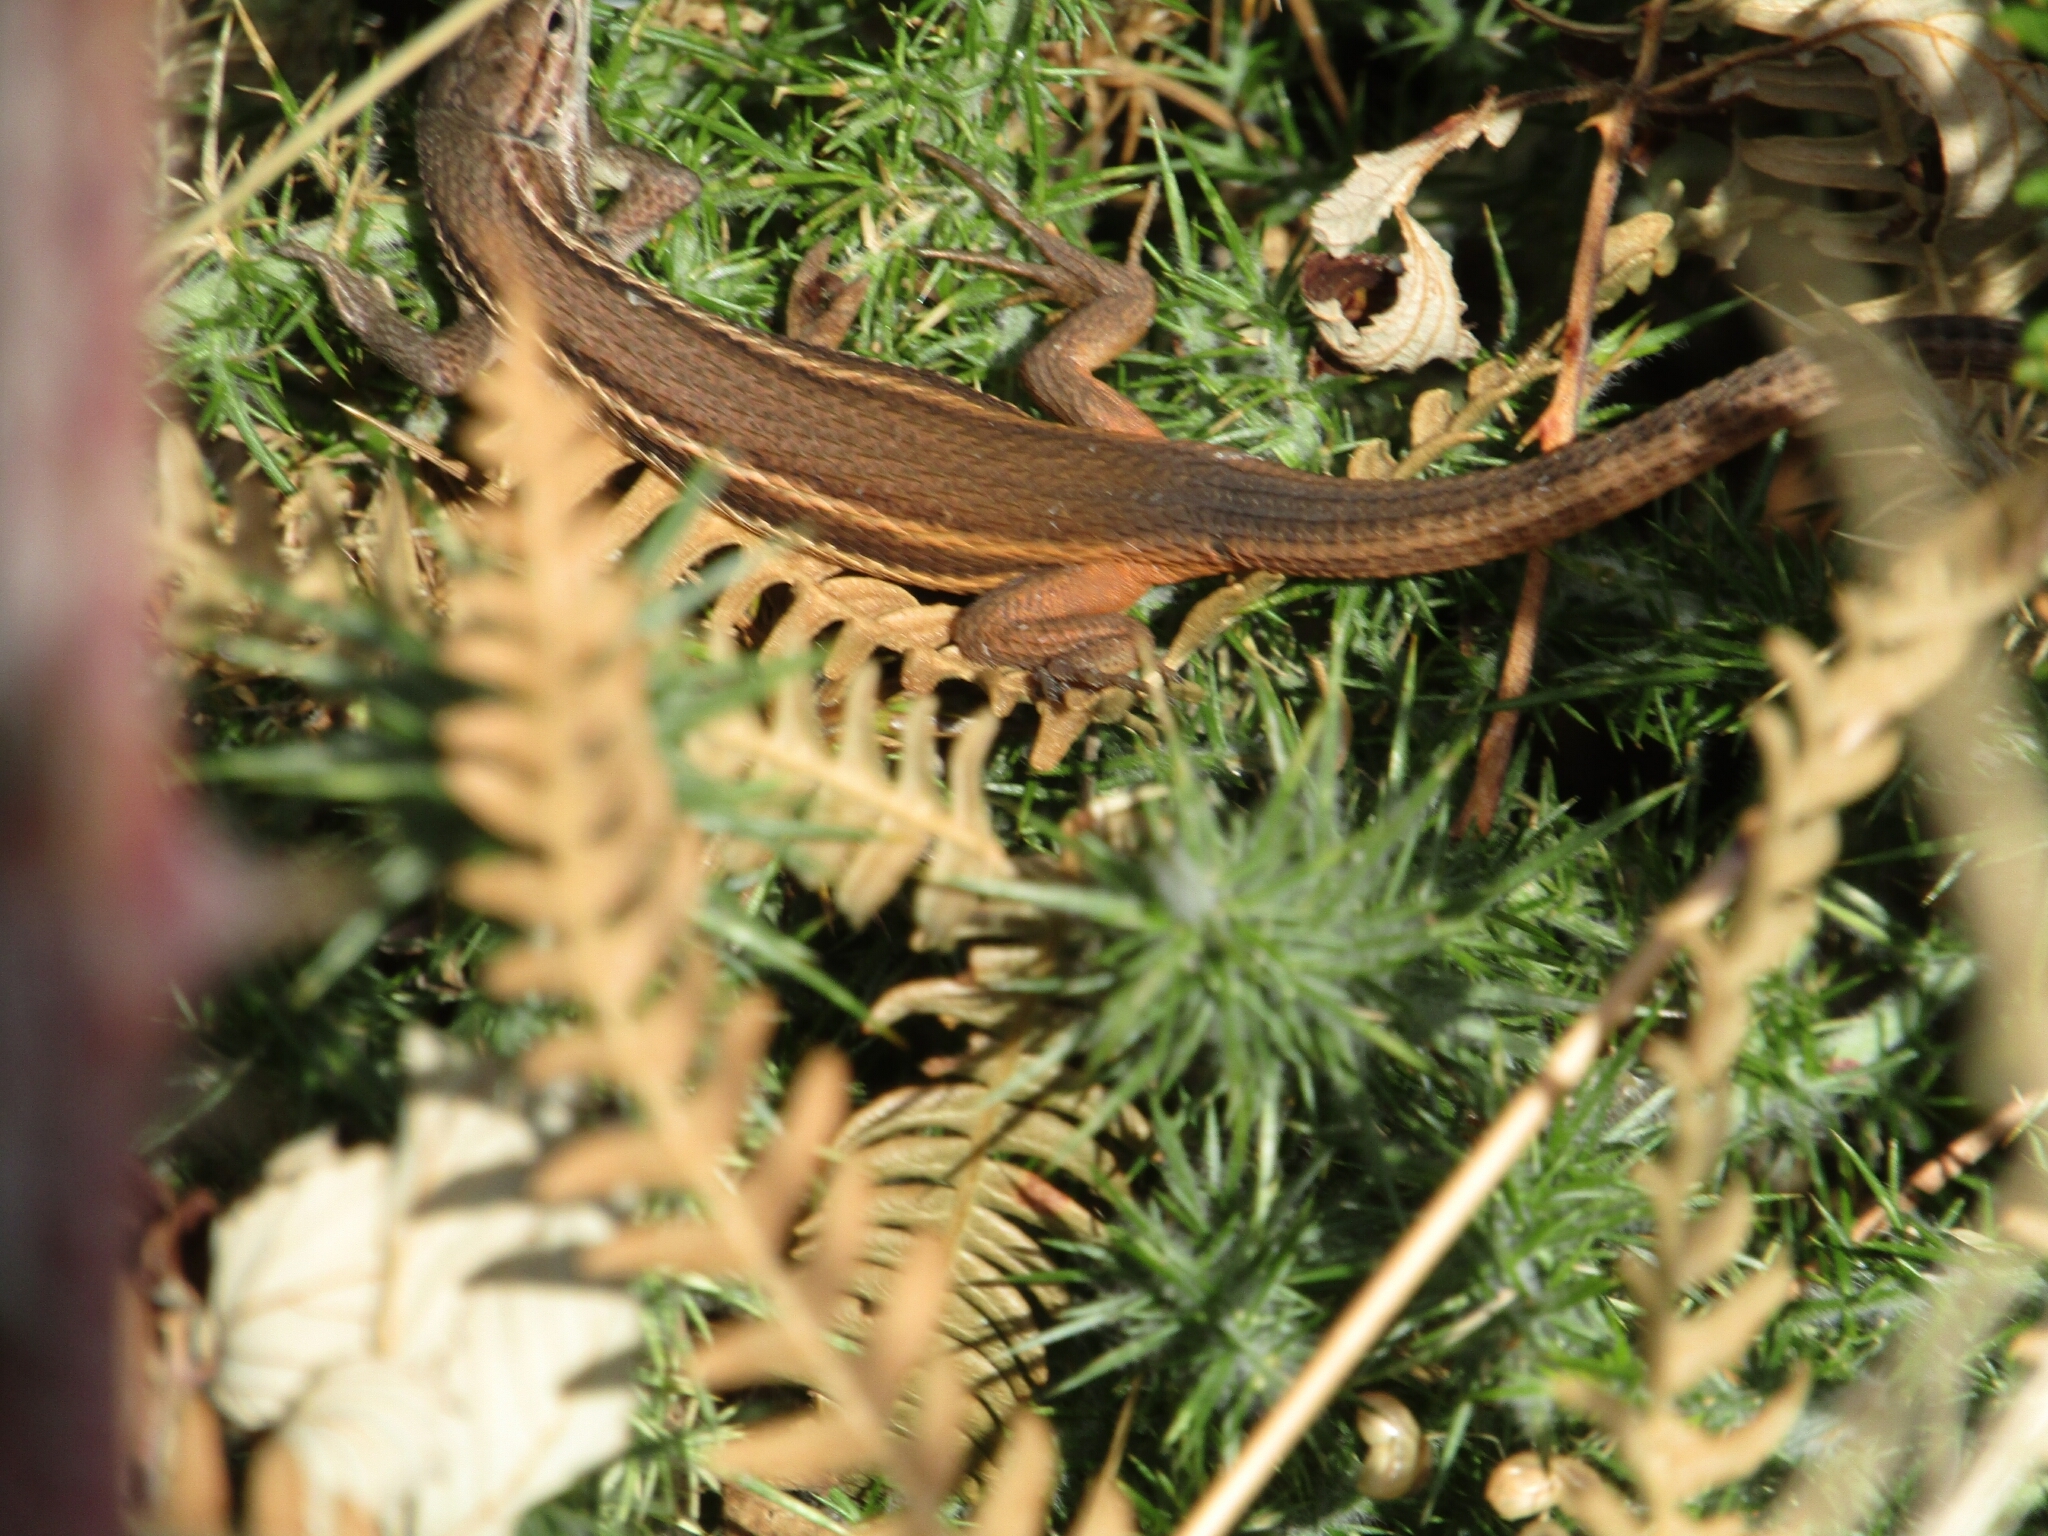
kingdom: Animalia
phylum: Chordata
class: Squamata
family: Lacertidae
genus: Psammodromus
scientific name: Psammodromus algirus
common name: Algerian psammodromus
